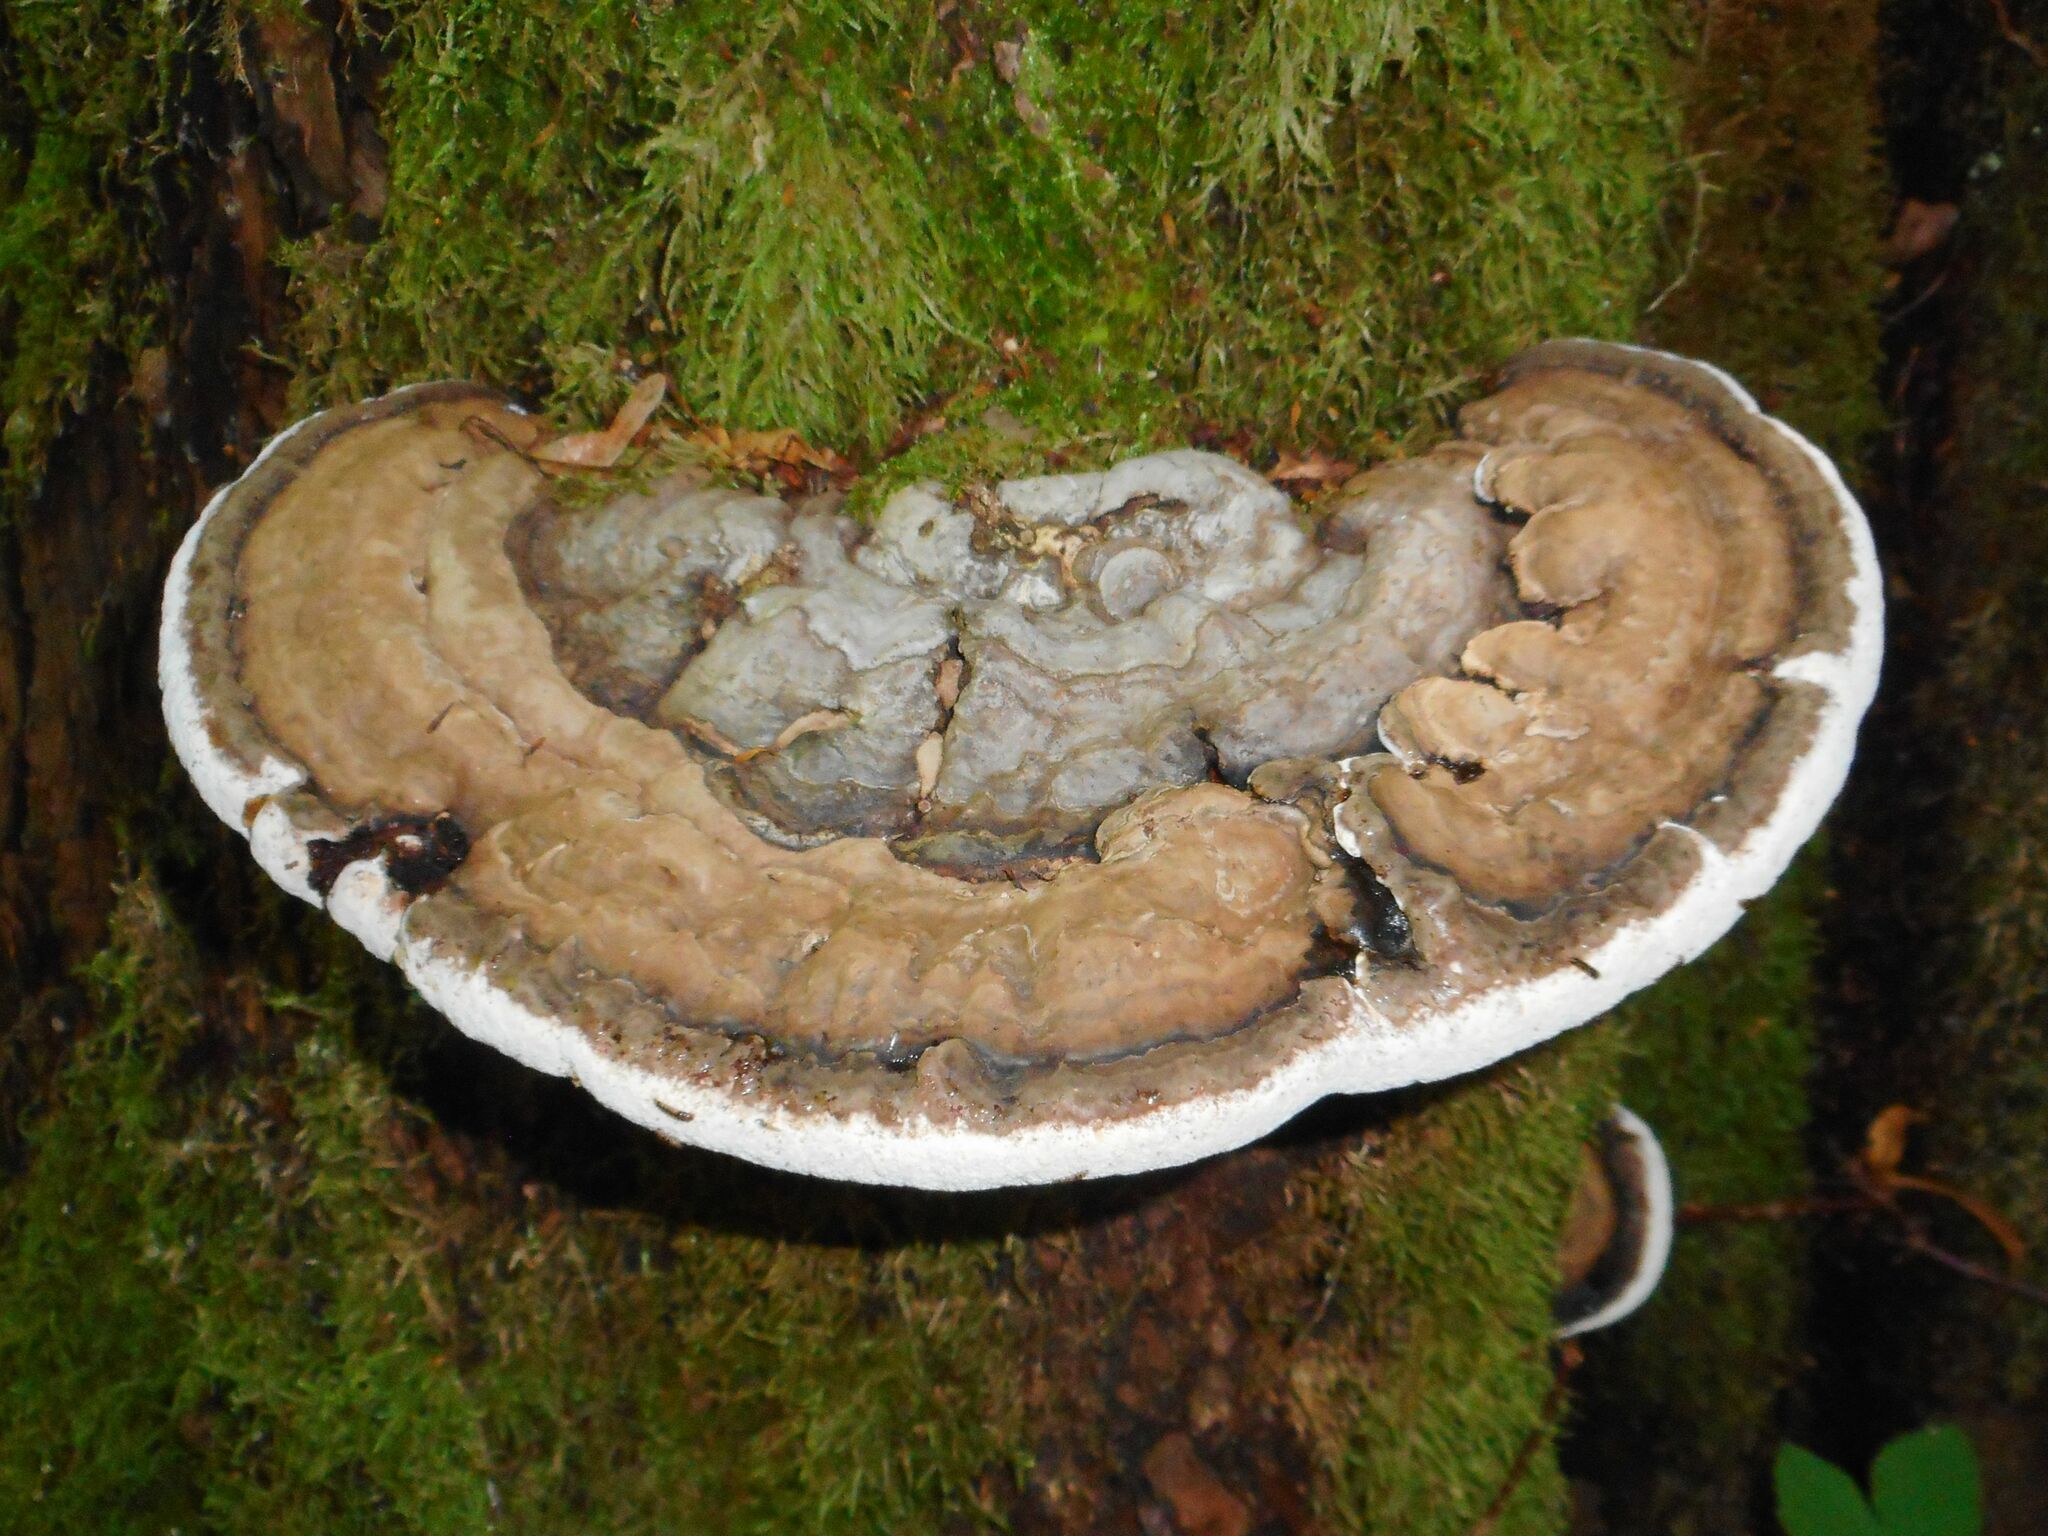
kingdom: Fungi
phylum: Basidiomycota
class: Agaricomycetes
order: Polyporales
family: Polyporaceae
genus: Ganoderma
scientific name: Ganoderma applanatum
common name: Artist's bracket
